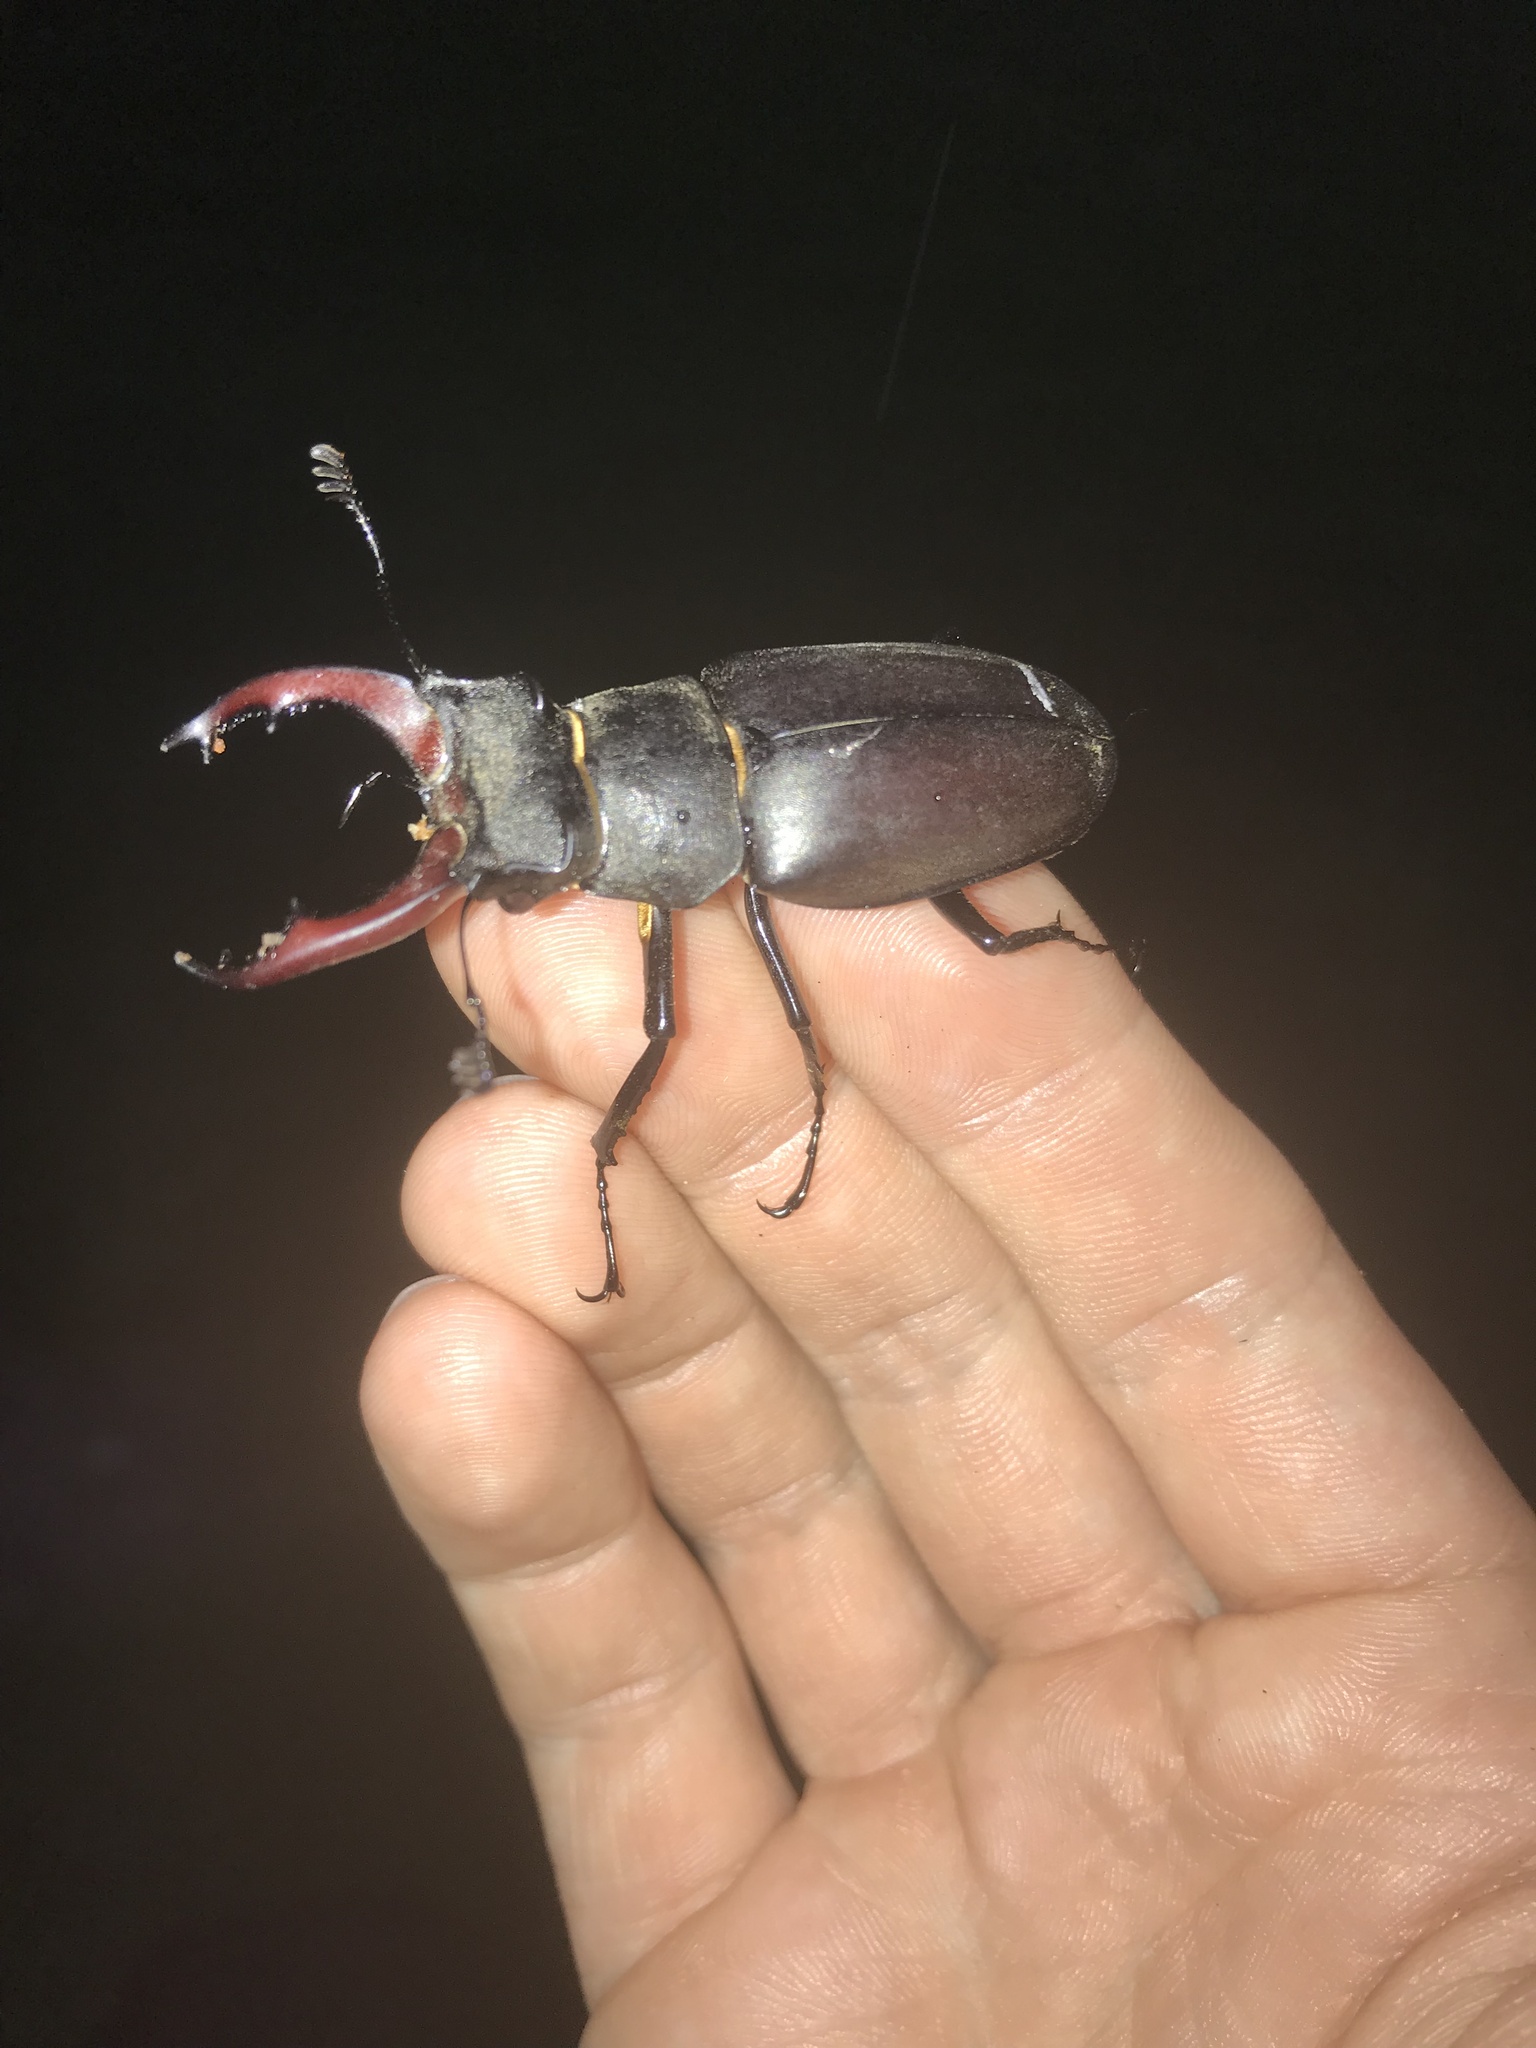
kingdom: Animalia
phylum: Arthropoda
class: Insecta
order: Coleoptera
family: Lucanidae
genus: Lucanus
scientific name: Lucanus cervus
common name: Stag beetle
